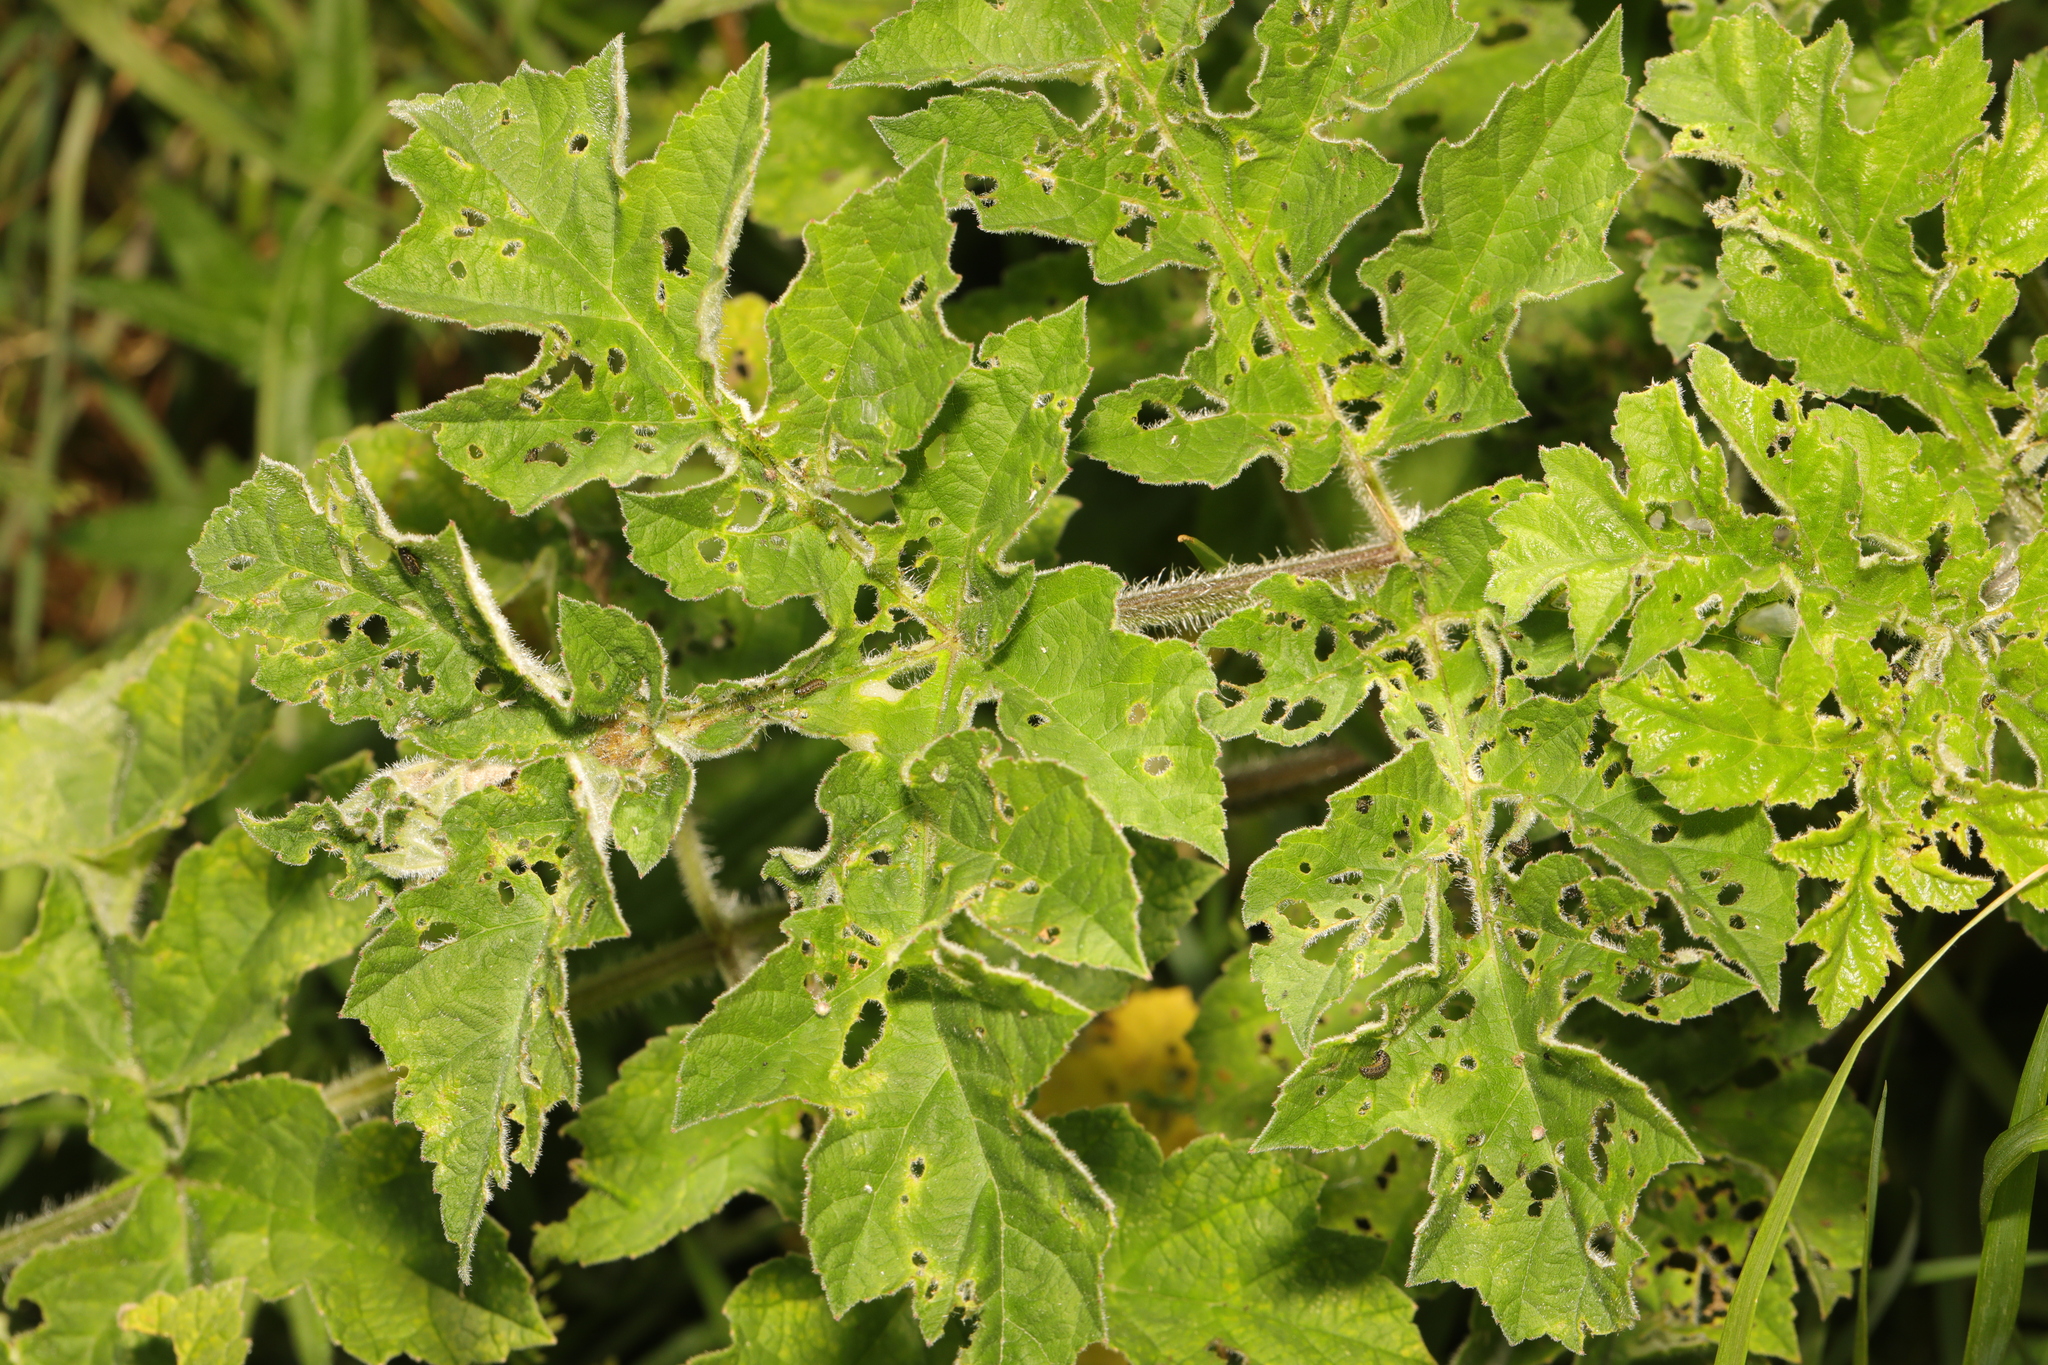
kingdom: Plantae
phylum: Tracheophyta
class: Magnoliopsida
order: Apiales
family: Apiaceae
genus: Heracleum
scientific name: Heracleum sphondylium
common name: Hogweed
